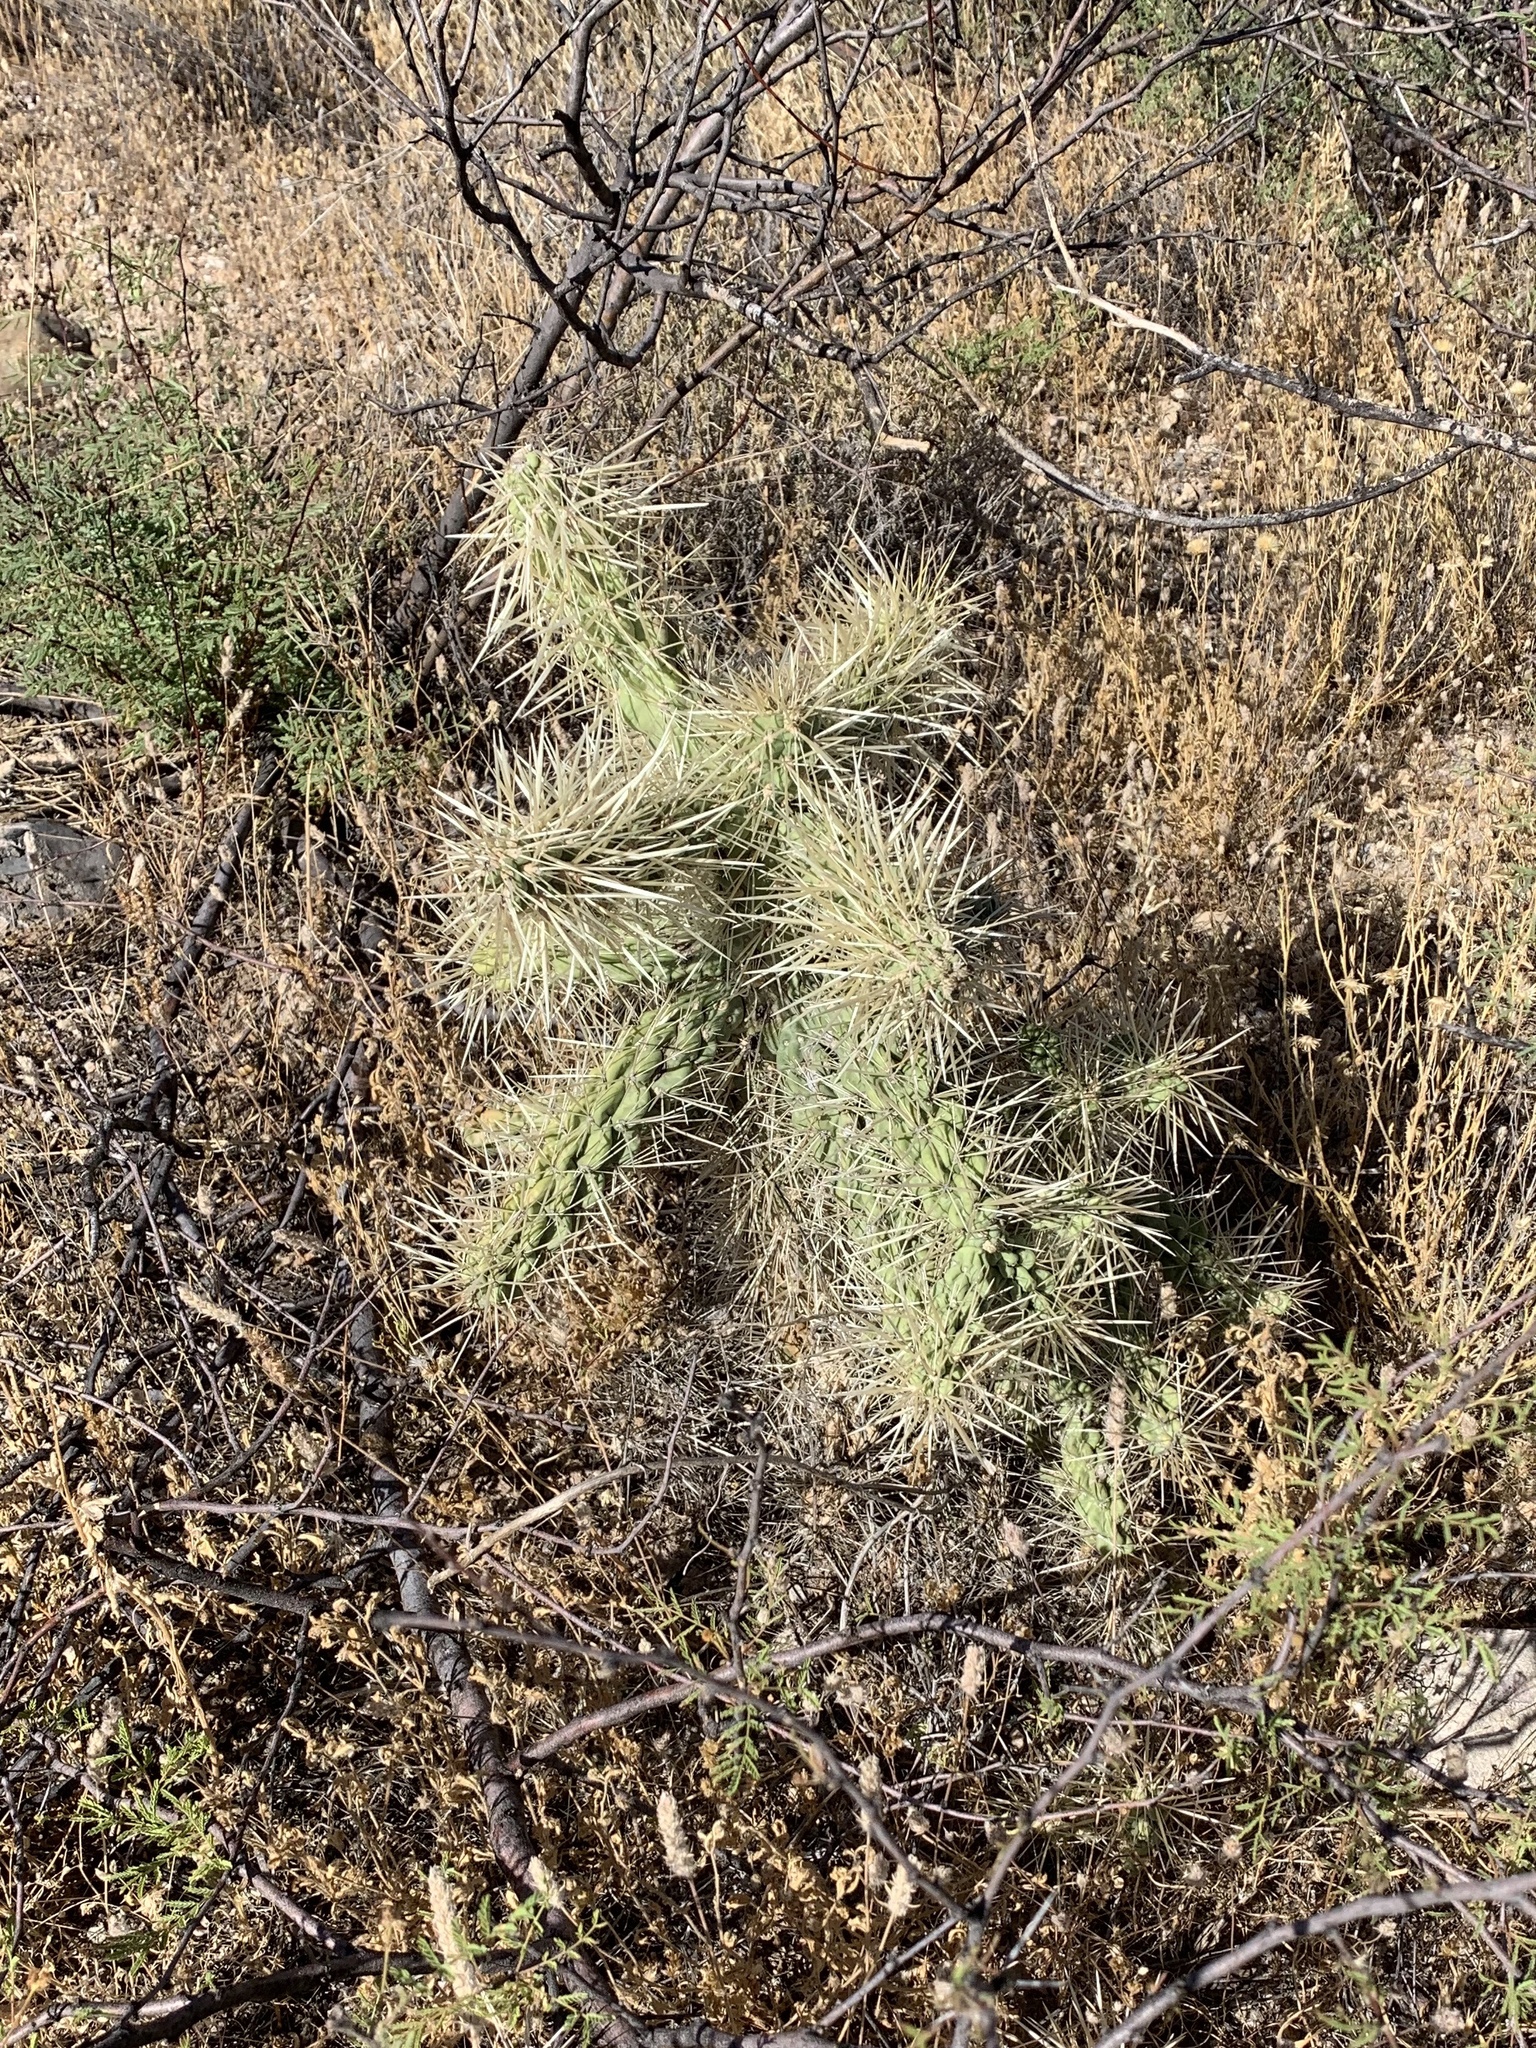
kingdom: Plantae
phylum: Tracheophyta
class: Magnoliopsida
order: Caryophyllales
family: Cactaceae
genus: Cylindropuntia
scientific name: Cylindropuntia fulgida
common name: Jumping cholla
